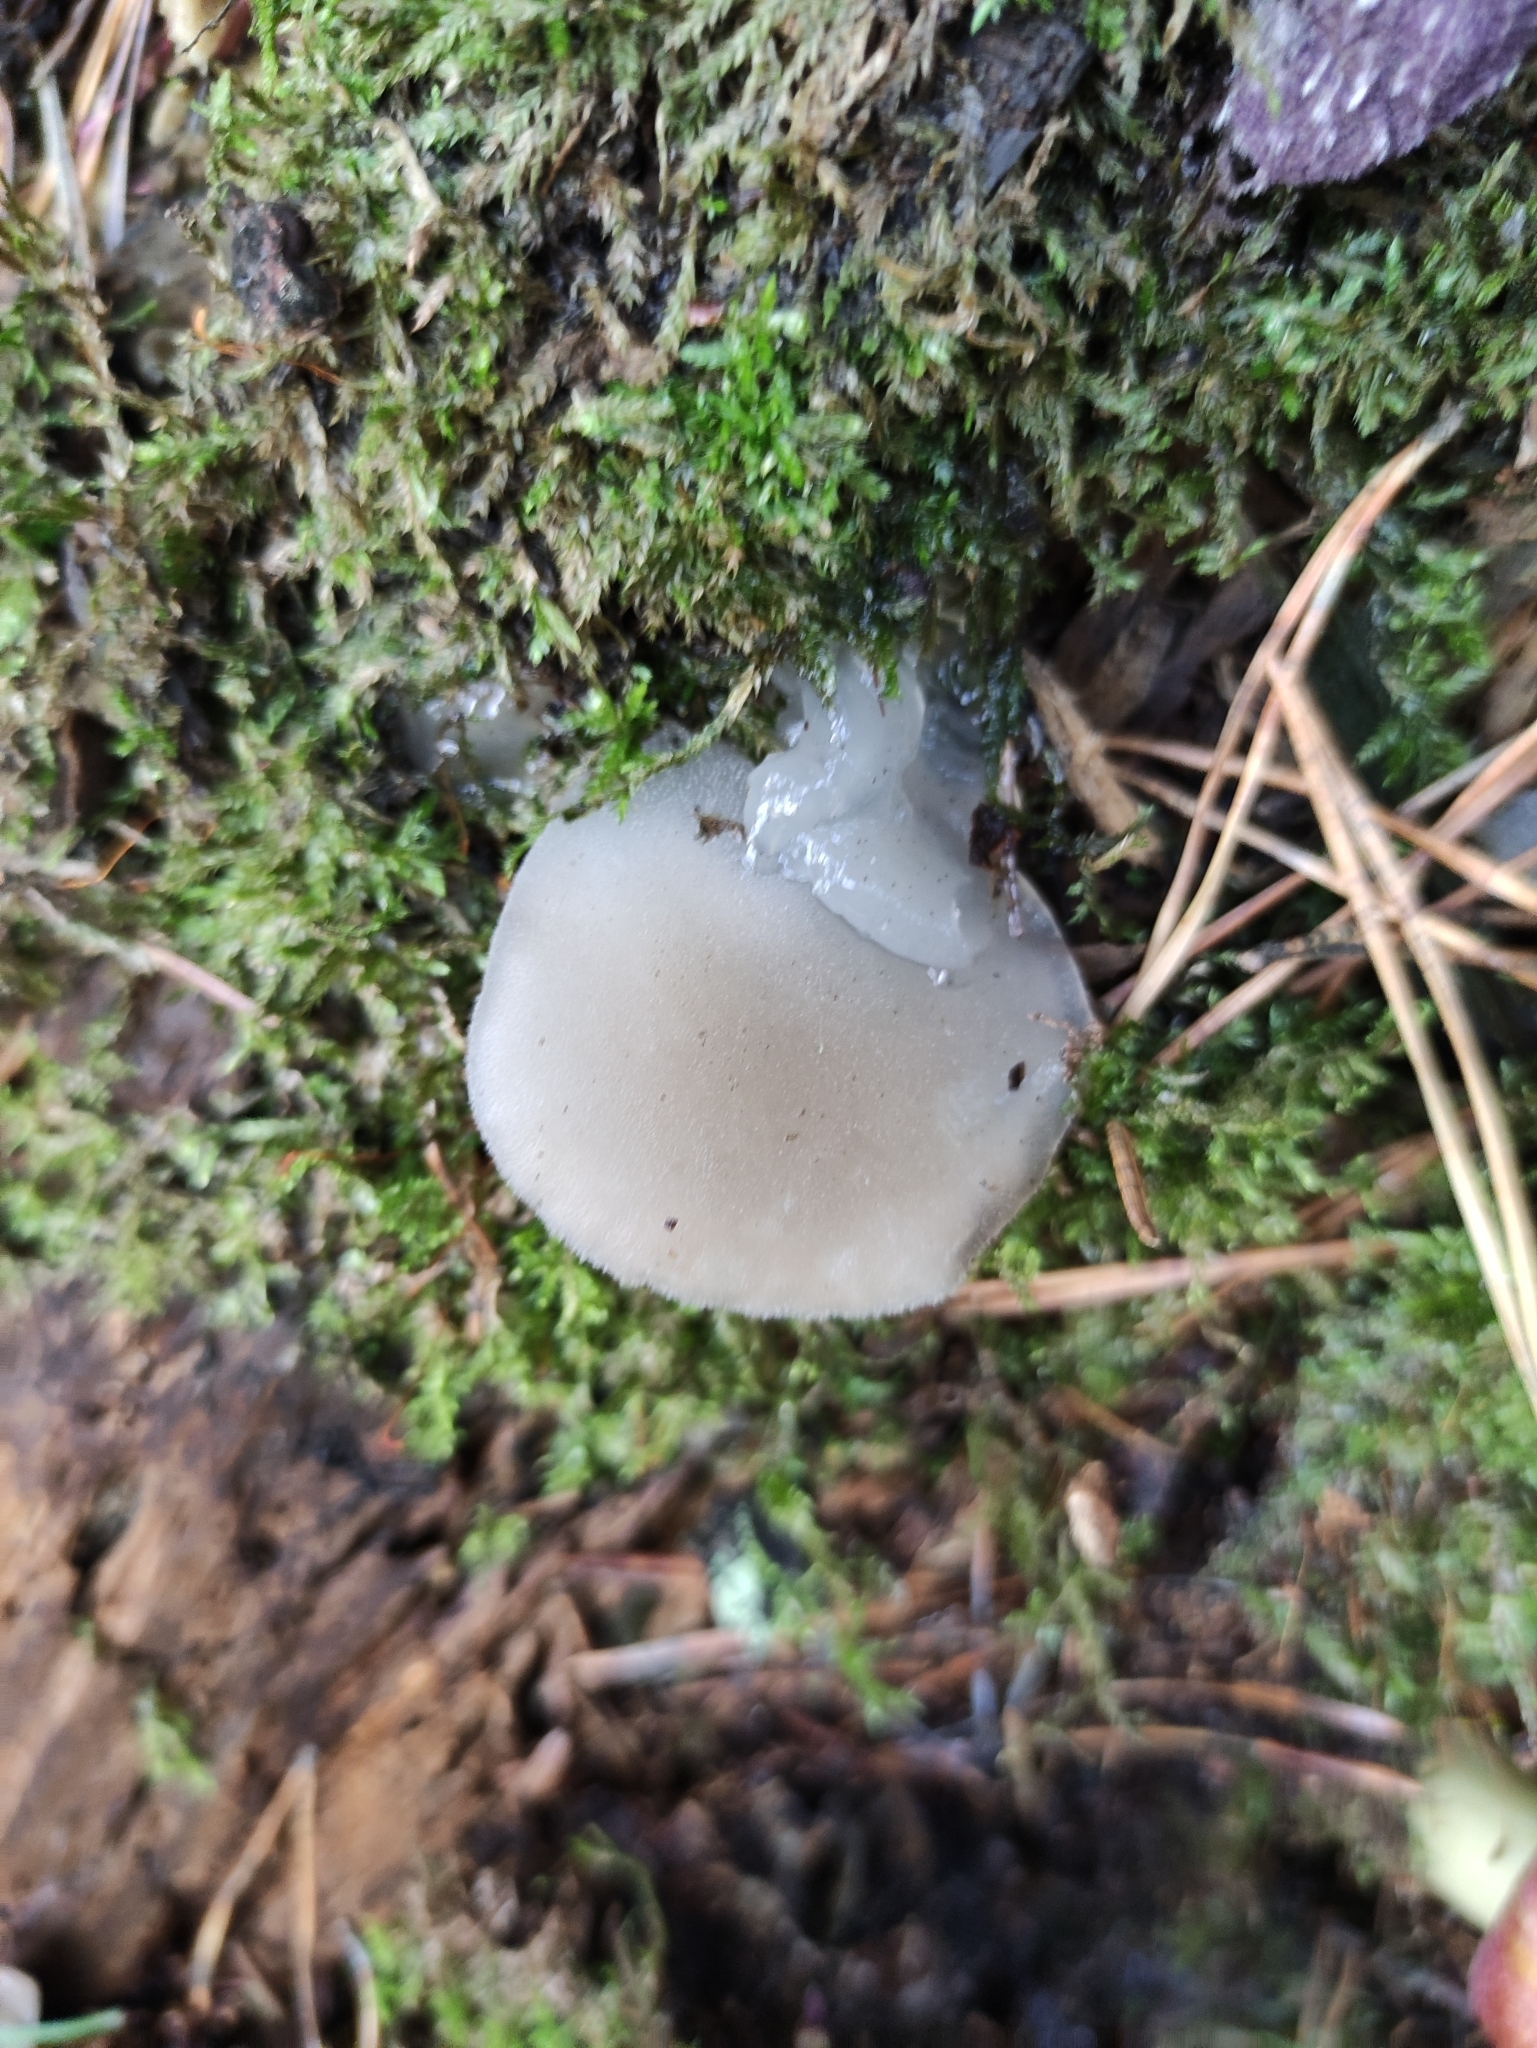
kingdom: Fungi
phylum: Basidiomycota
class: Agaricomycetes
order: Auriculariales
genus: Pseudohydnum
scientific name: Pseudohydnum gelatinosum
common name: Jelly tongue
